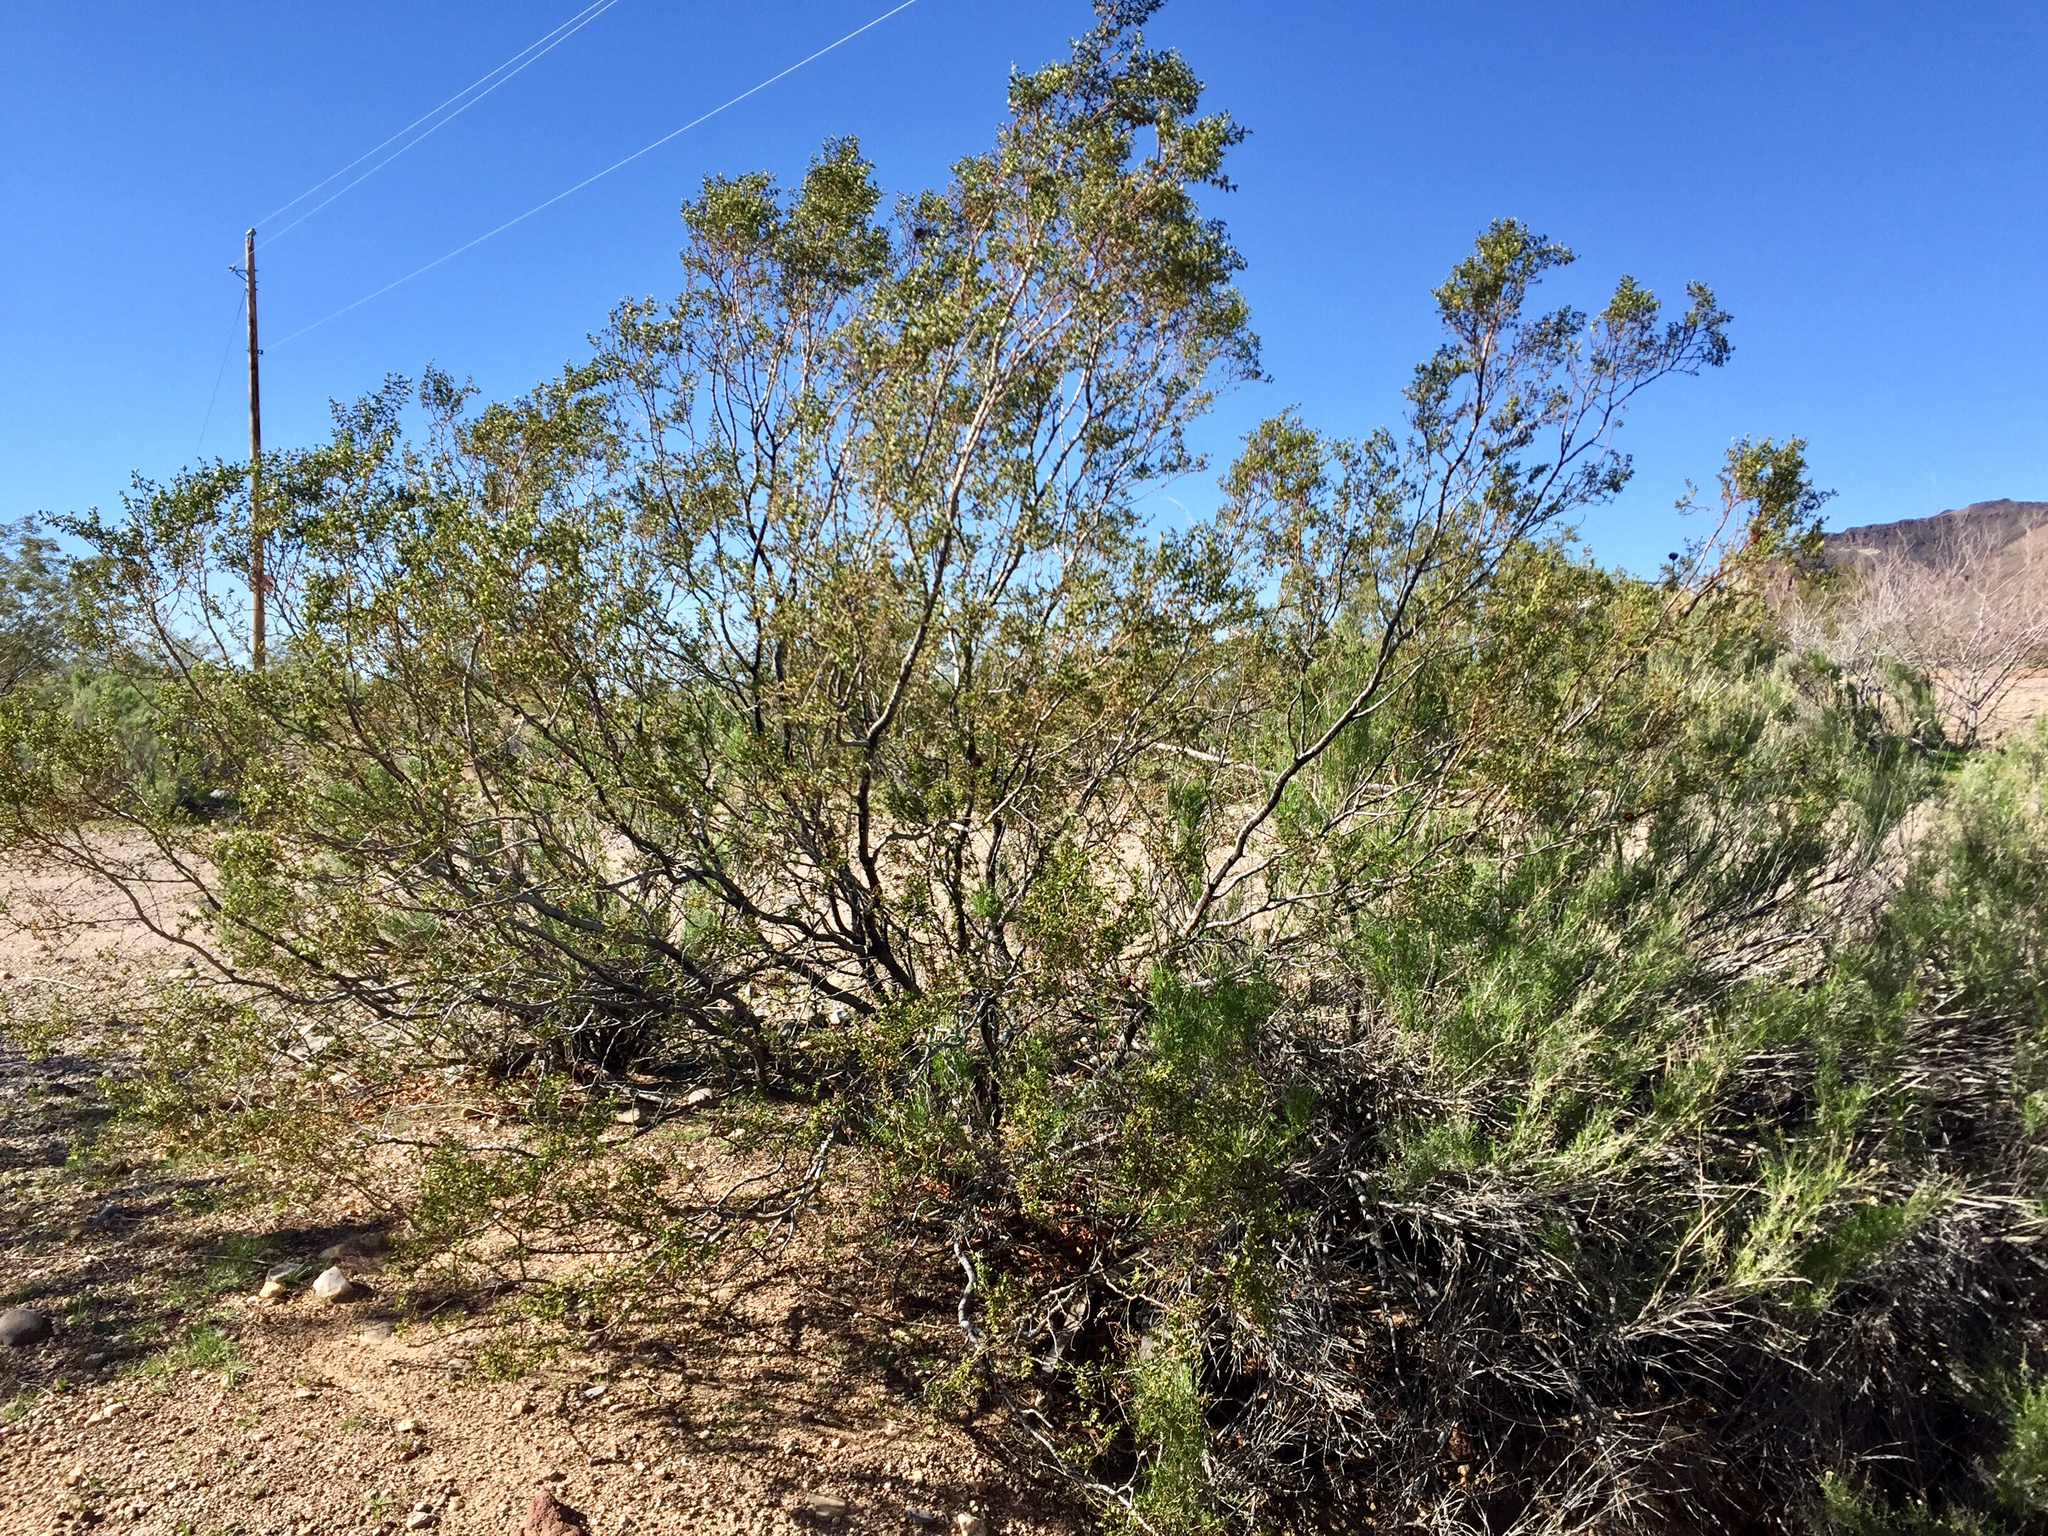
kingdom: Plantae
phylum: Tracheophyta
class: Magnoliopsida
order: Zygophyllales
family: Zygophyllaceae
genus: Larrea
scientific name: Larrea tridentata
